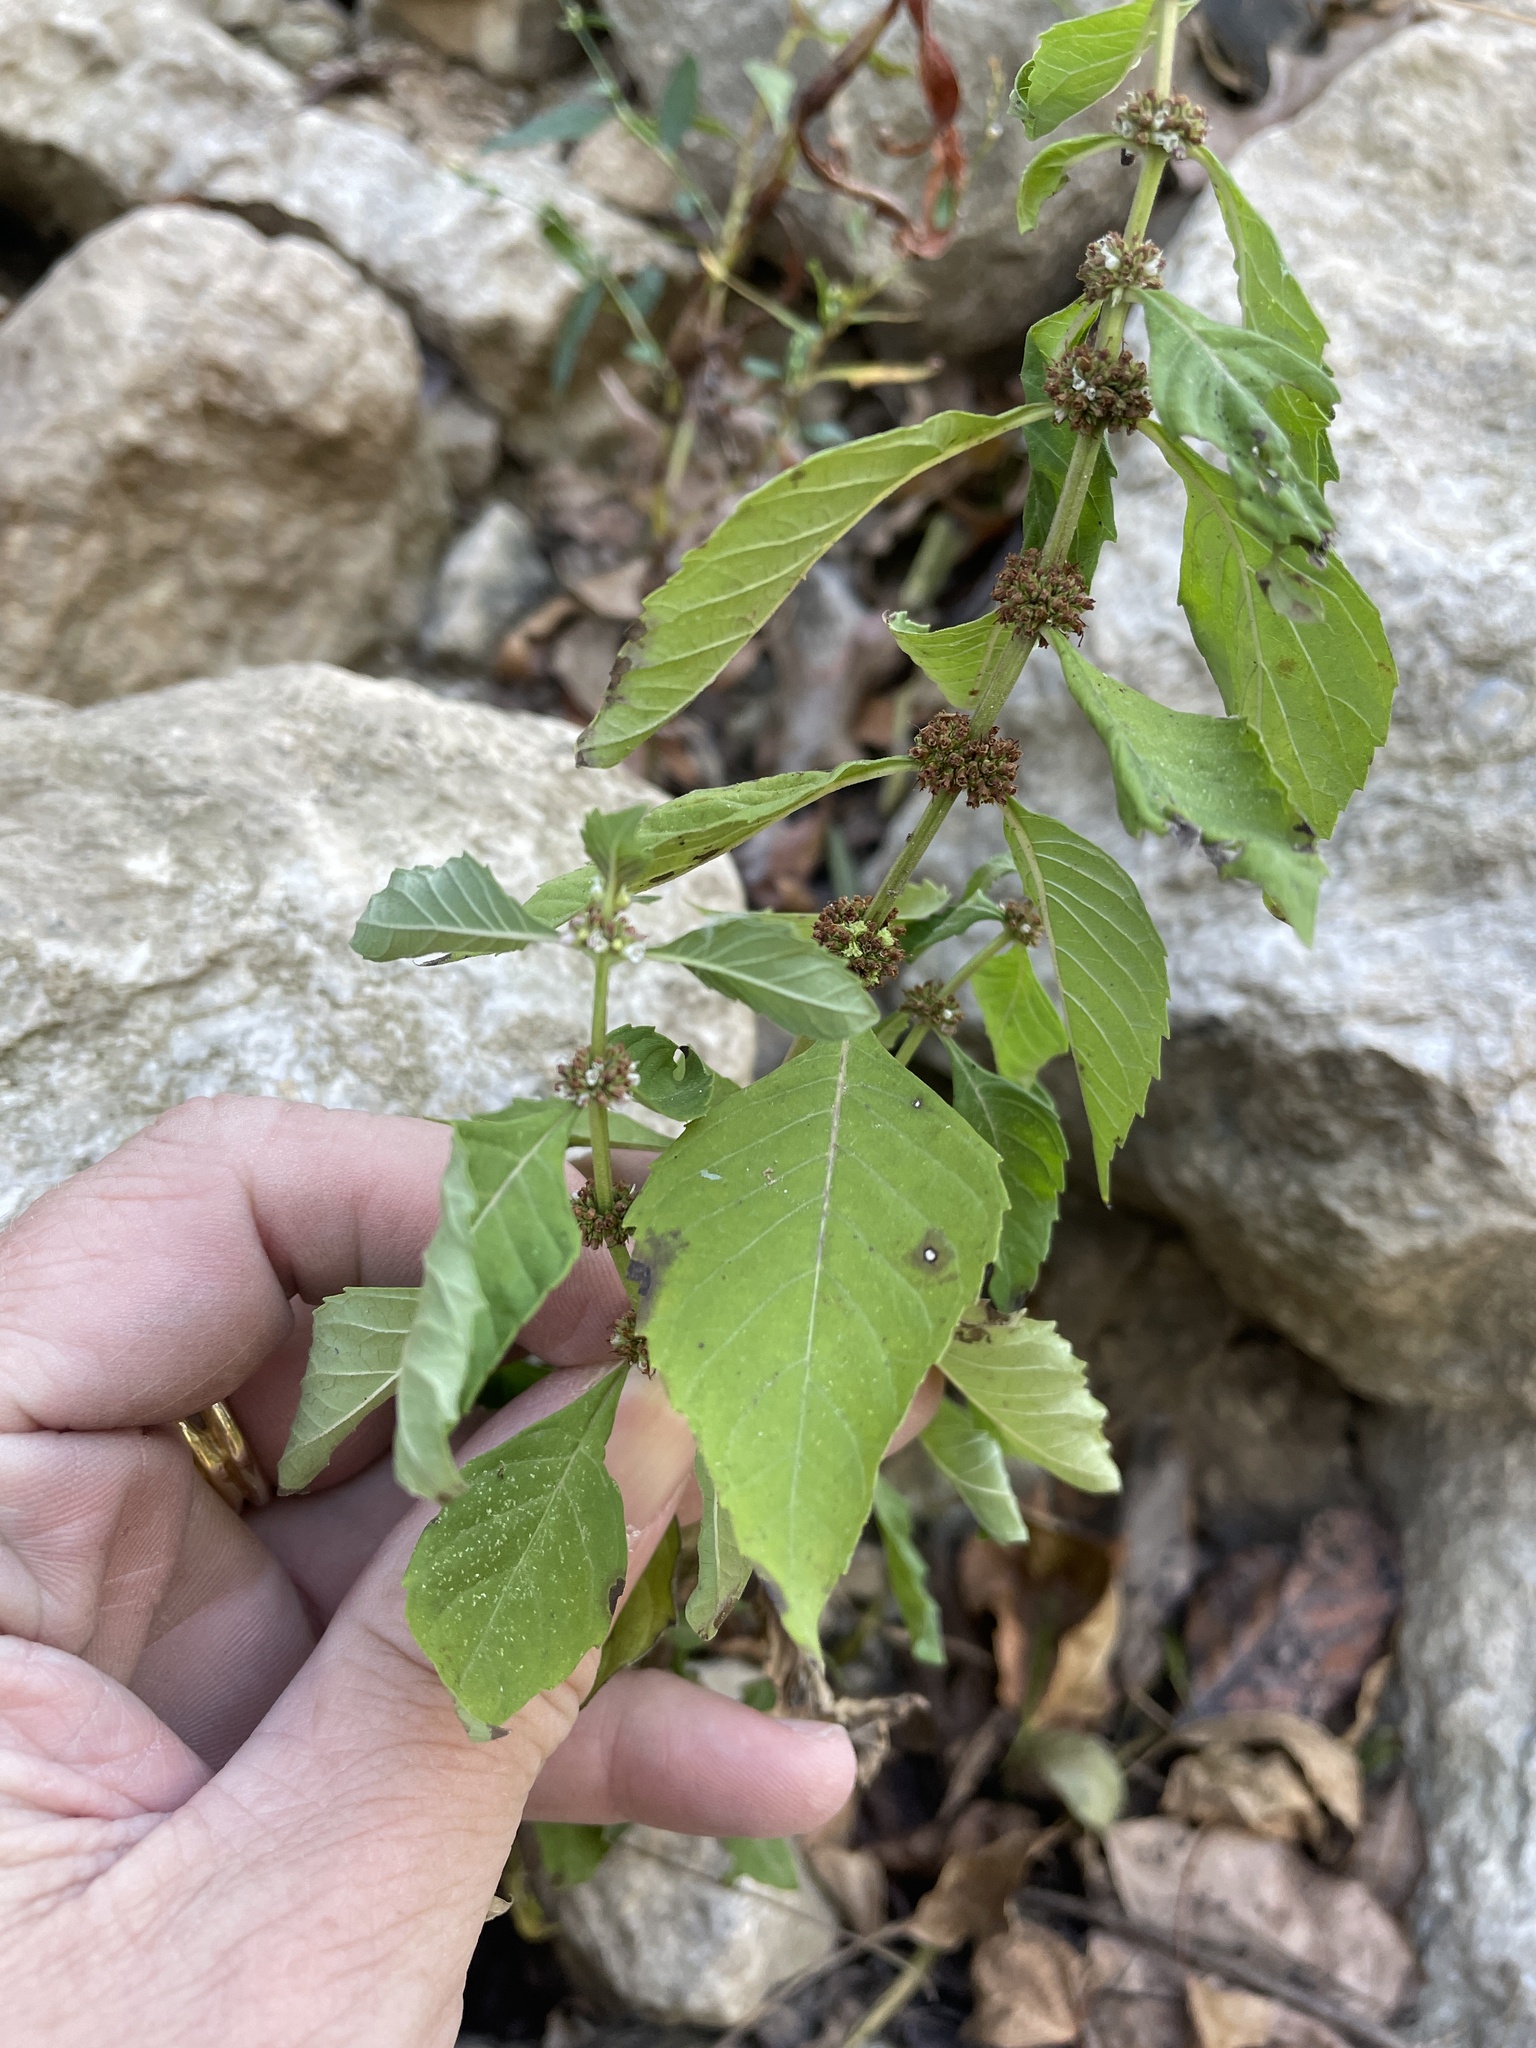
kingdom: Plantae
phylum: Tracheophyta
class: Magnoliopsida
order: Lamiales
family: Lamiaceae
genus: Lycopus
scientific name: Lycopus virginicus
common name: Bugleweed
